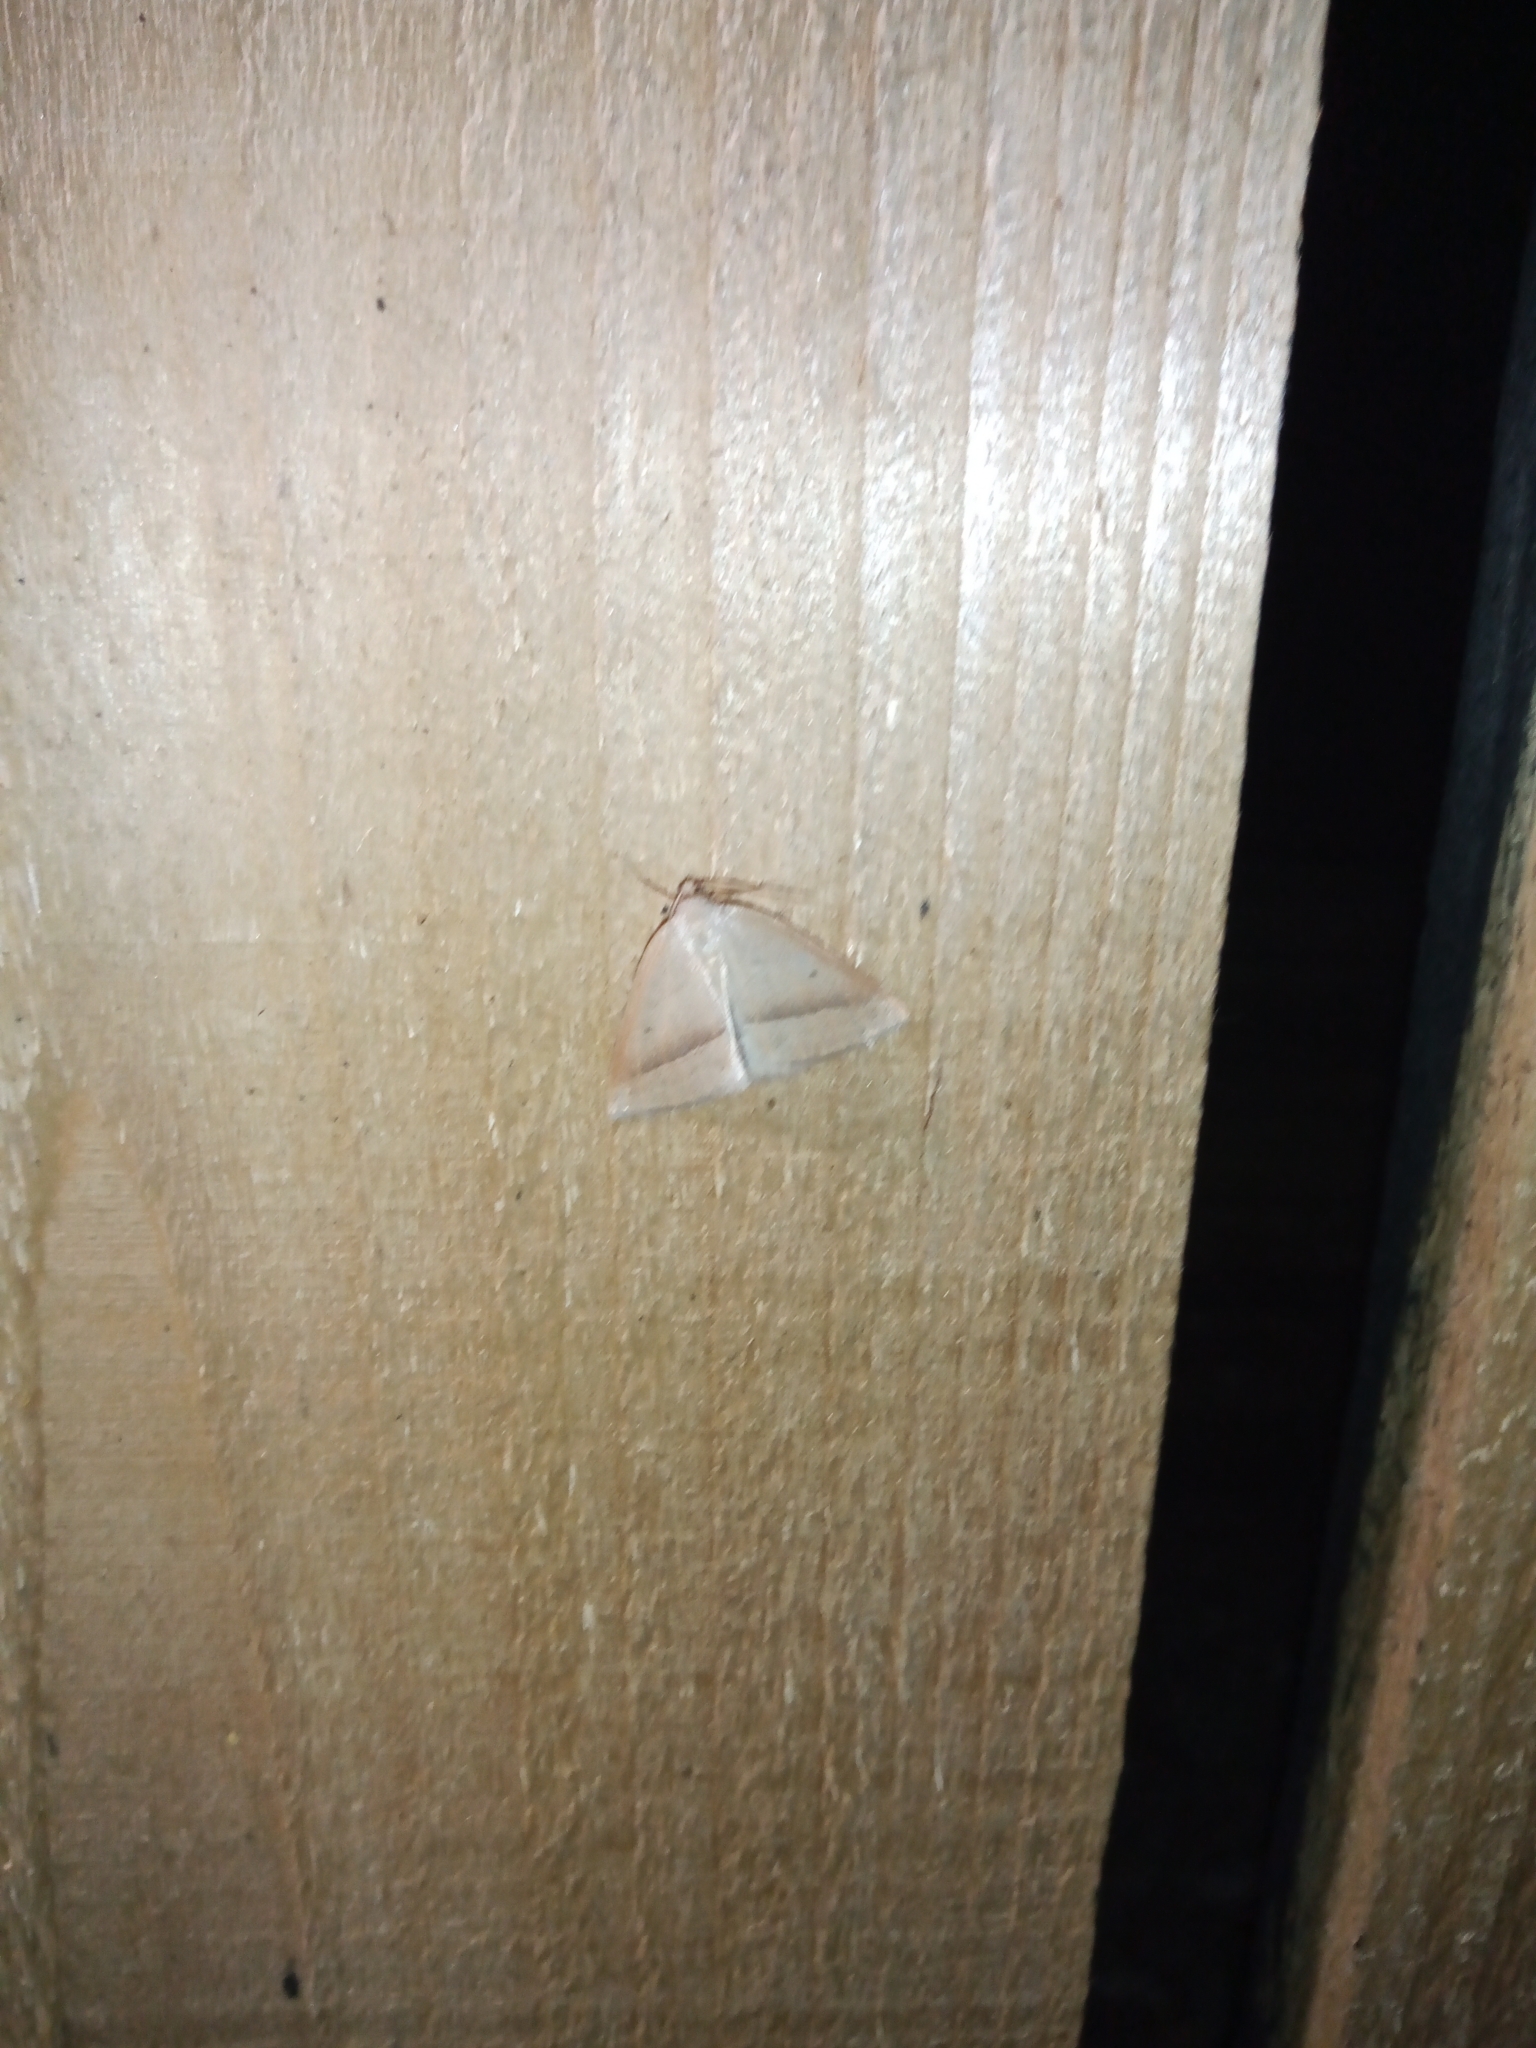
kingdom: Animalia
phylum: Arthropoda
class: Insecta
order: Lepidoptera
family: Pterophoridae
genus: Pterophorus
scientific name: Pterophorus Petrophora chlorosata
